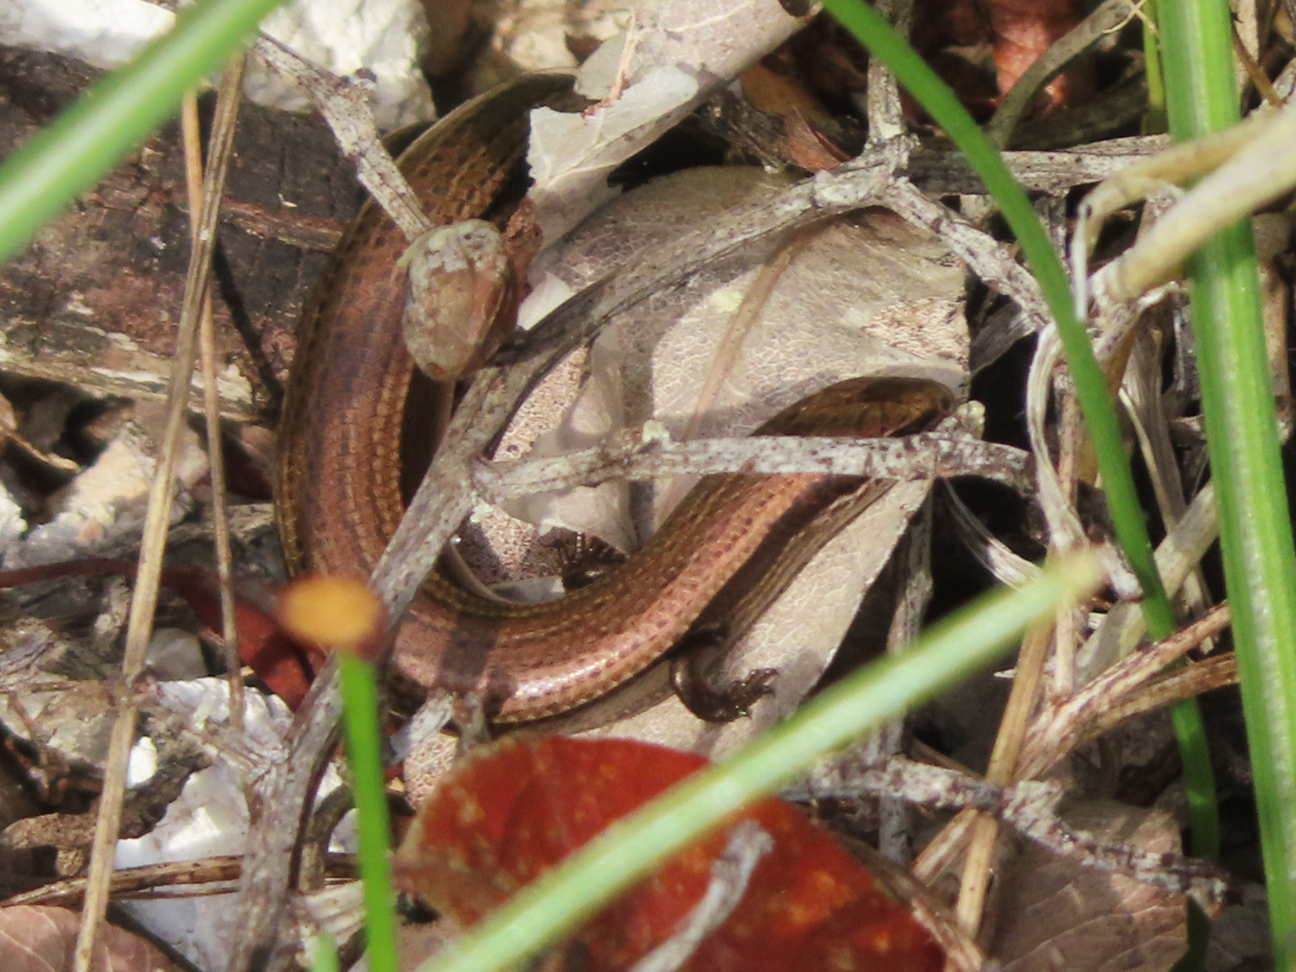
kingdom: Animalia
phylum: Chordata
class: Squamata
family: Scincidae
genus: Ablepharus
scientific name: Ablepharus kitaibelii
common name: Juniper skink
